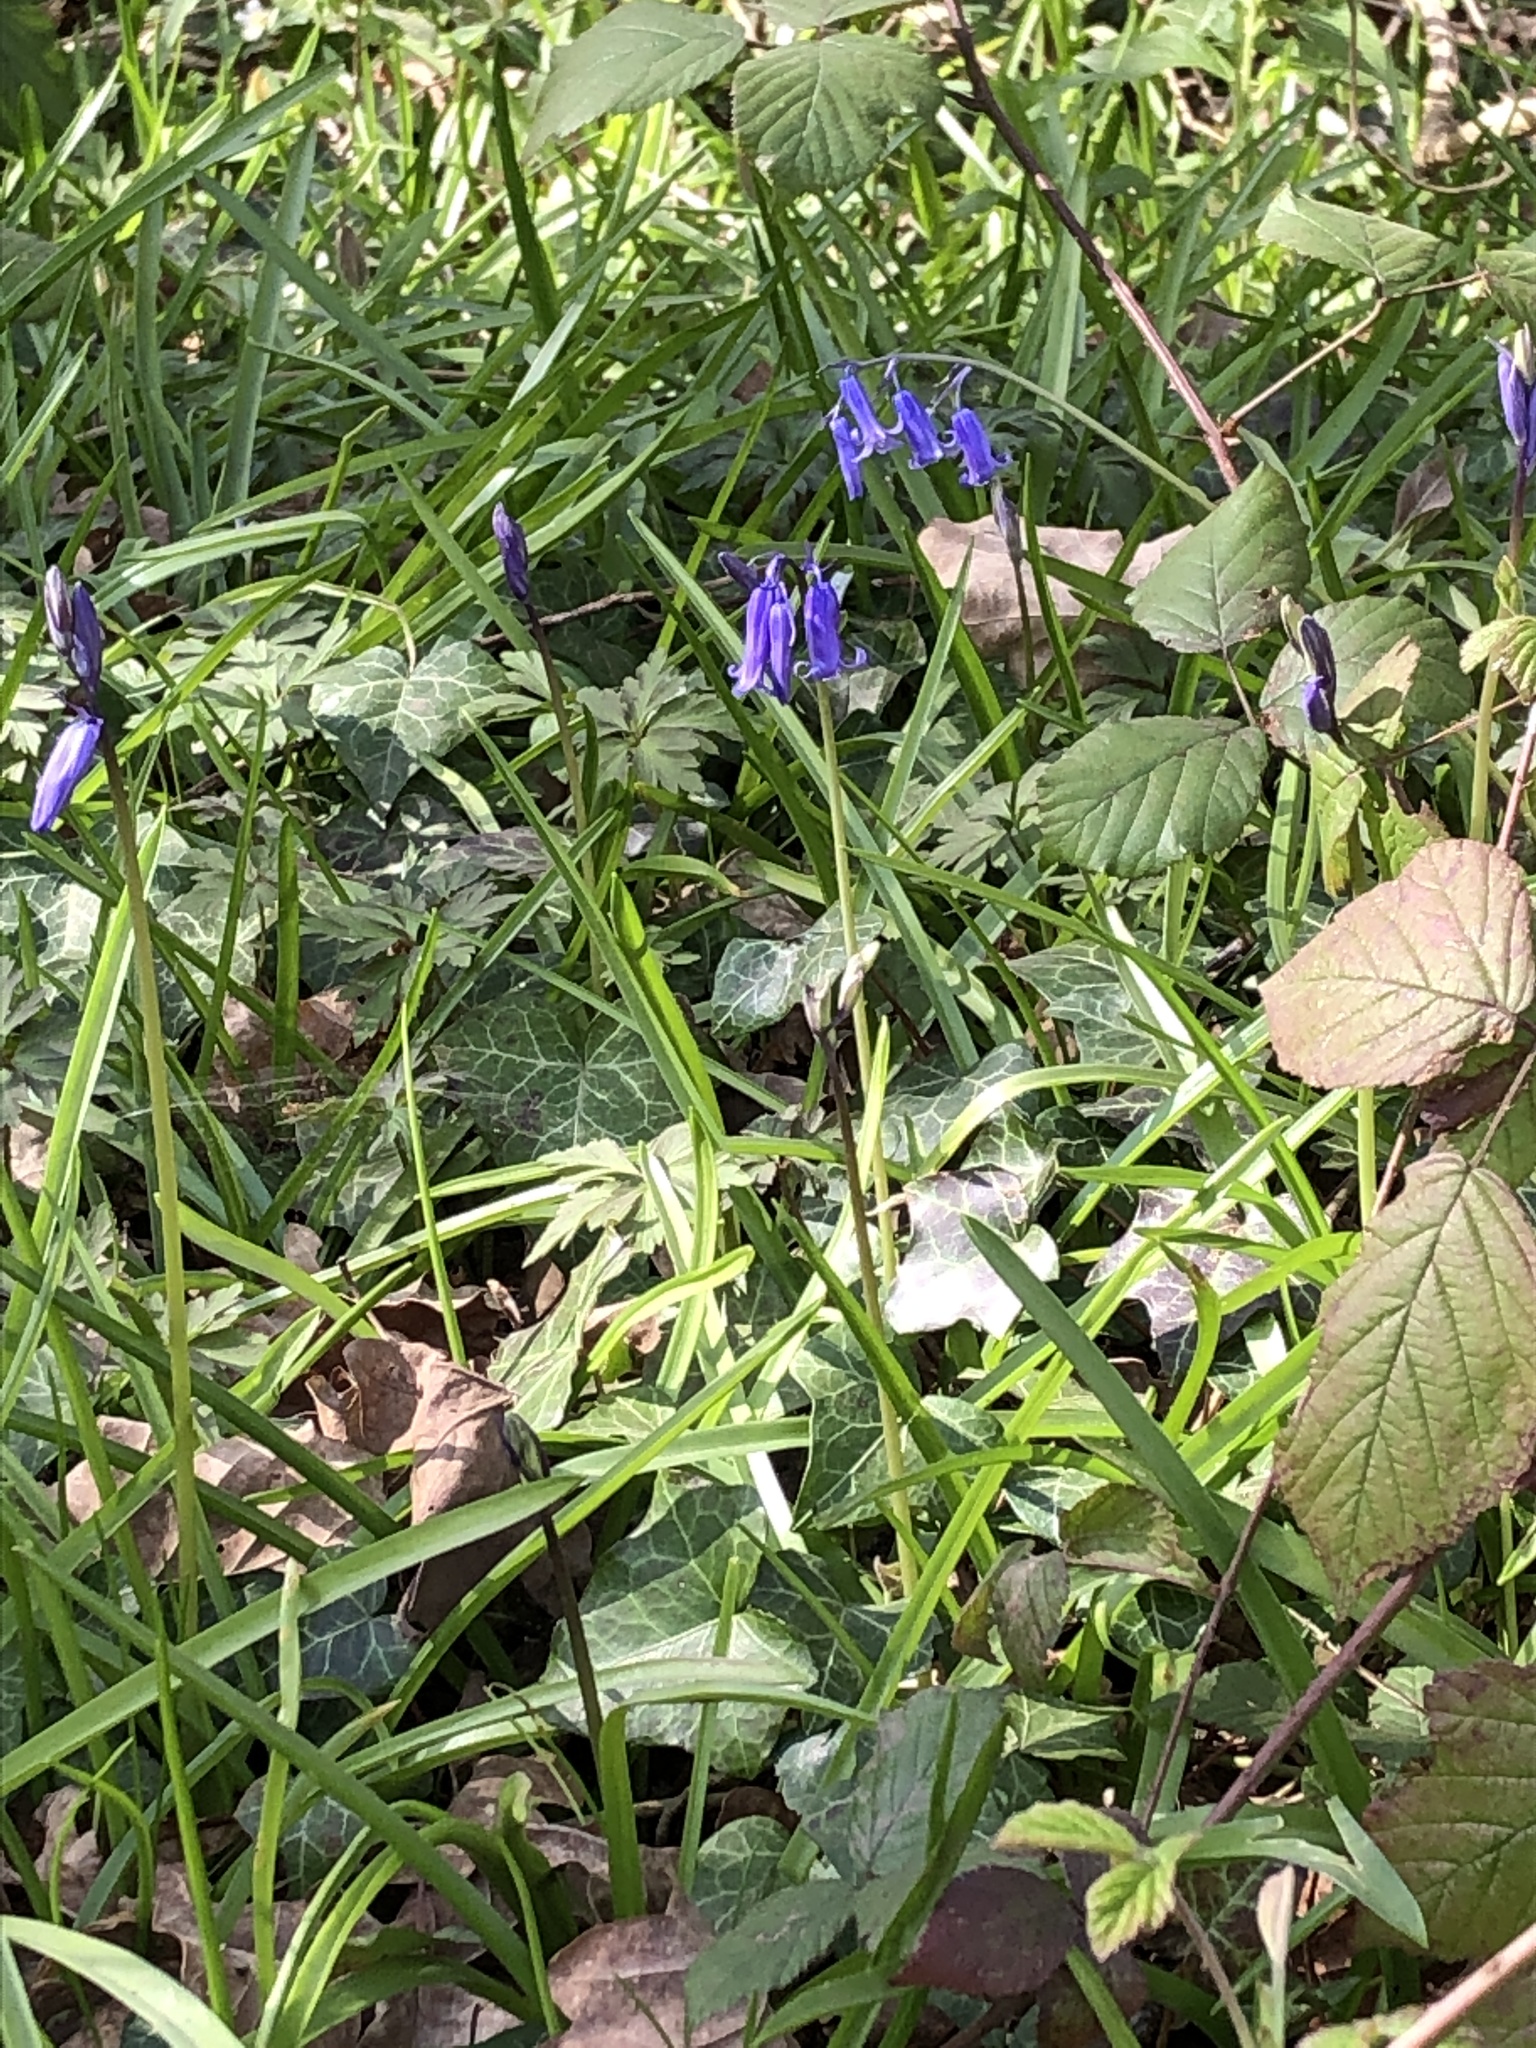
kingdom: Plantae
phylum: Tracheophyta
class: Liliopsida
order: Asparagales
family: Asparagaceae
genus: Hyacinthoides
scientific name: Hyacinthoides non-scripta
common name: Bluebell
